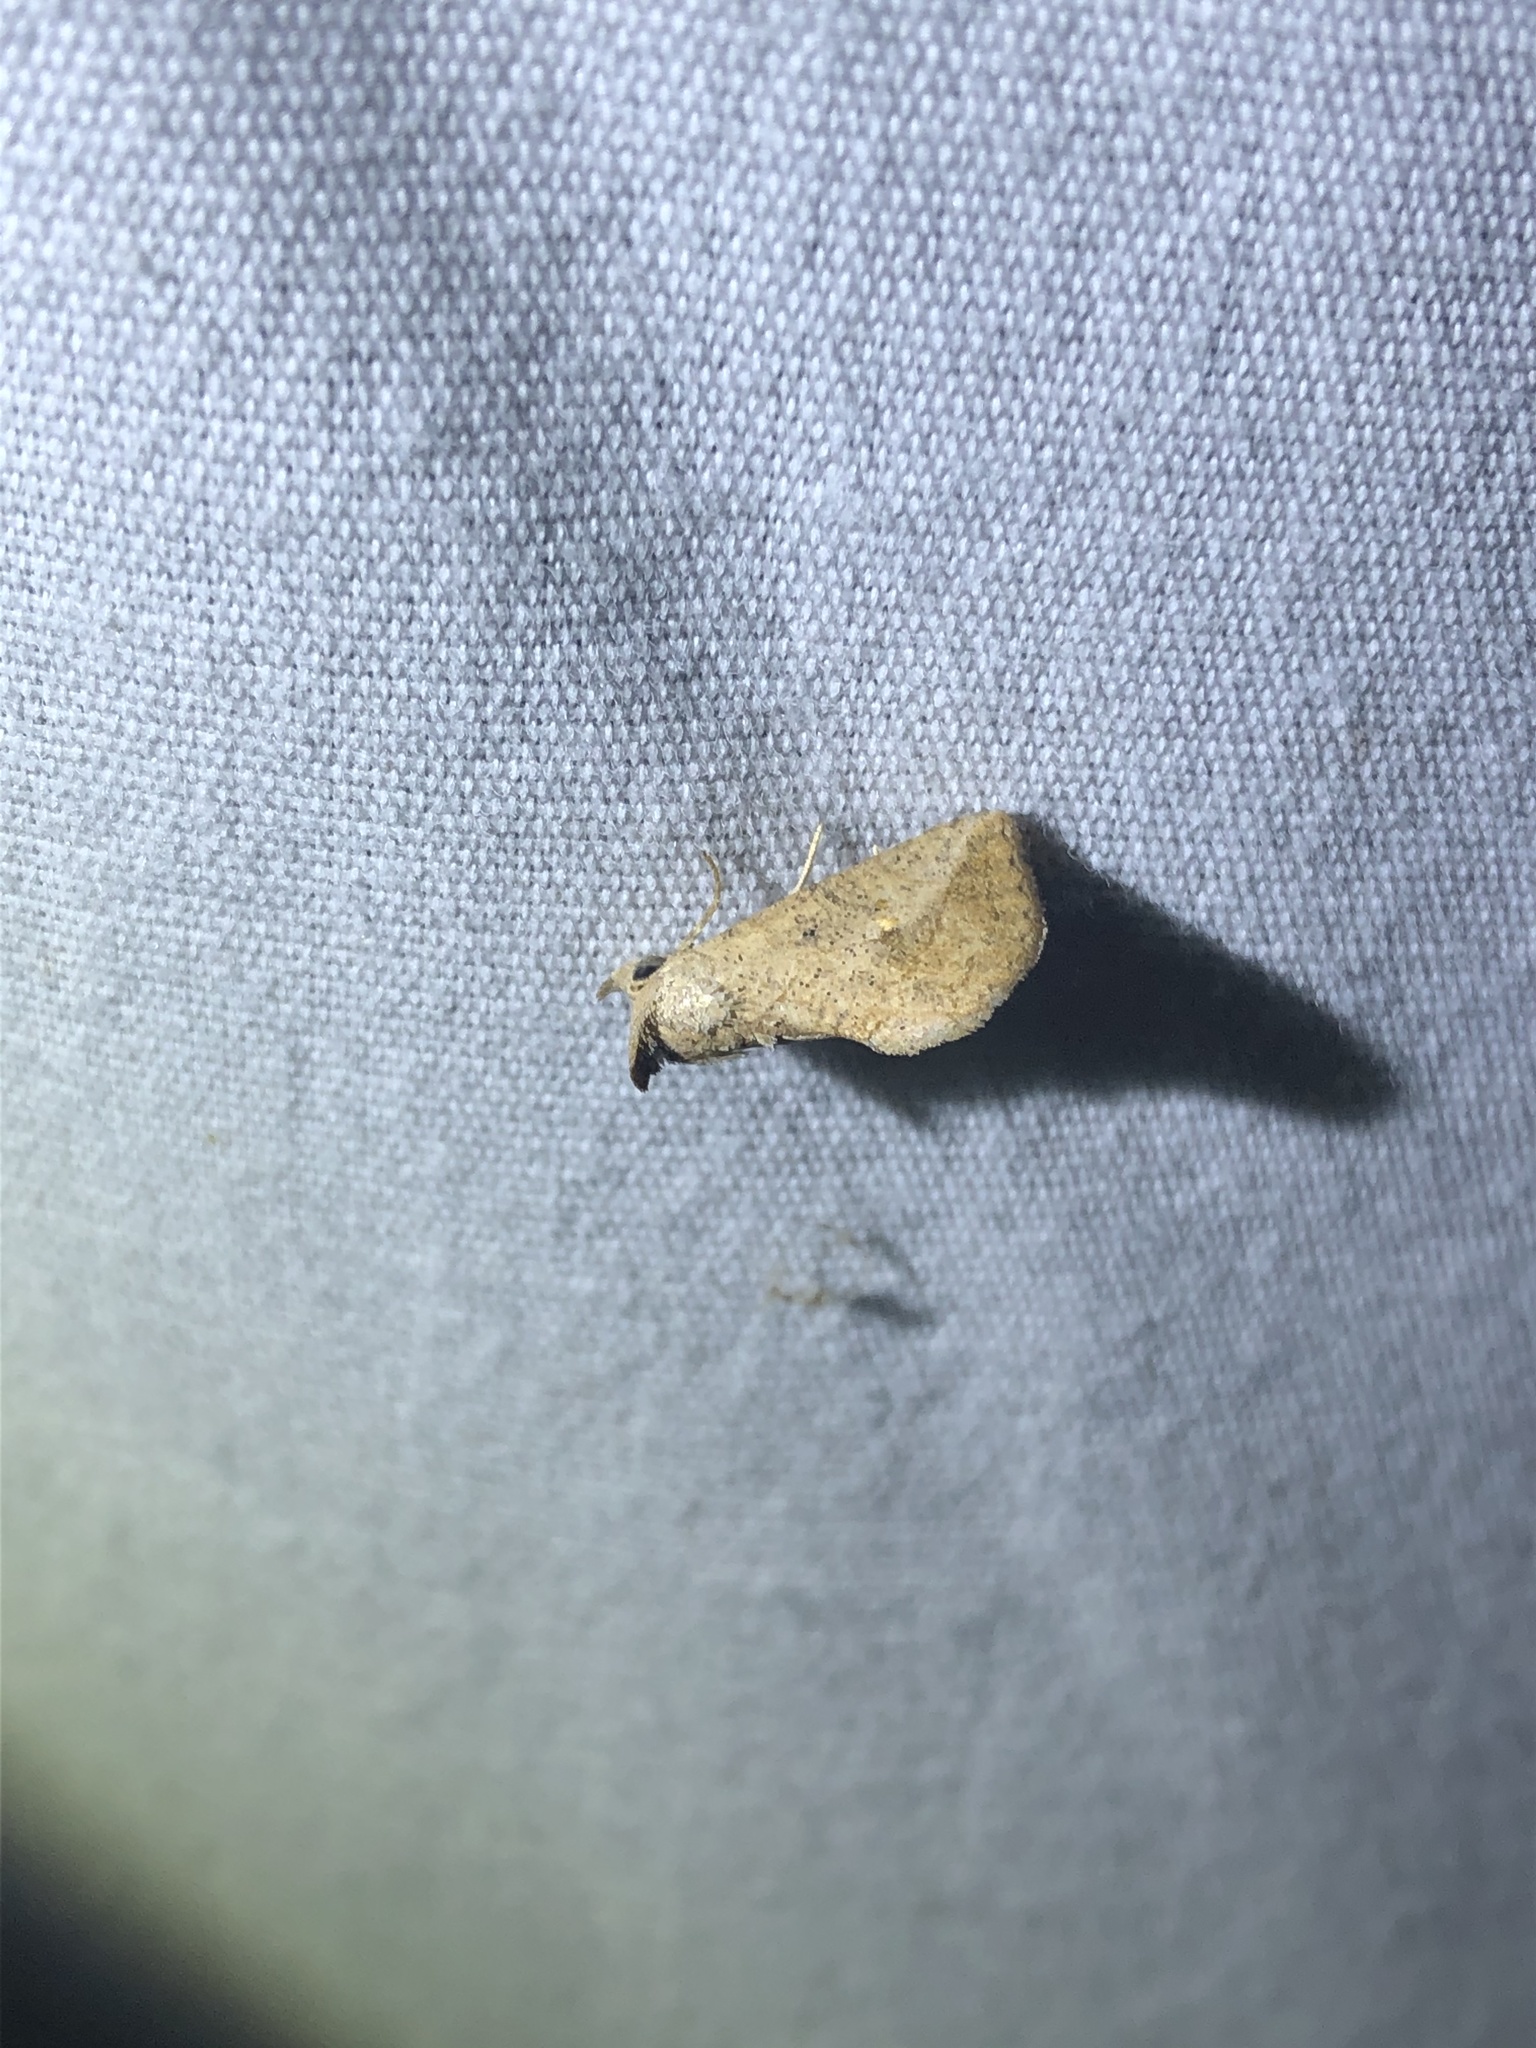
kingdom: Animalia
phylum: Arthropoda
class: Insecta
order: Lepidoptera
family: Erebidae
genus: Isogona
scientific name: Isogona snowi
